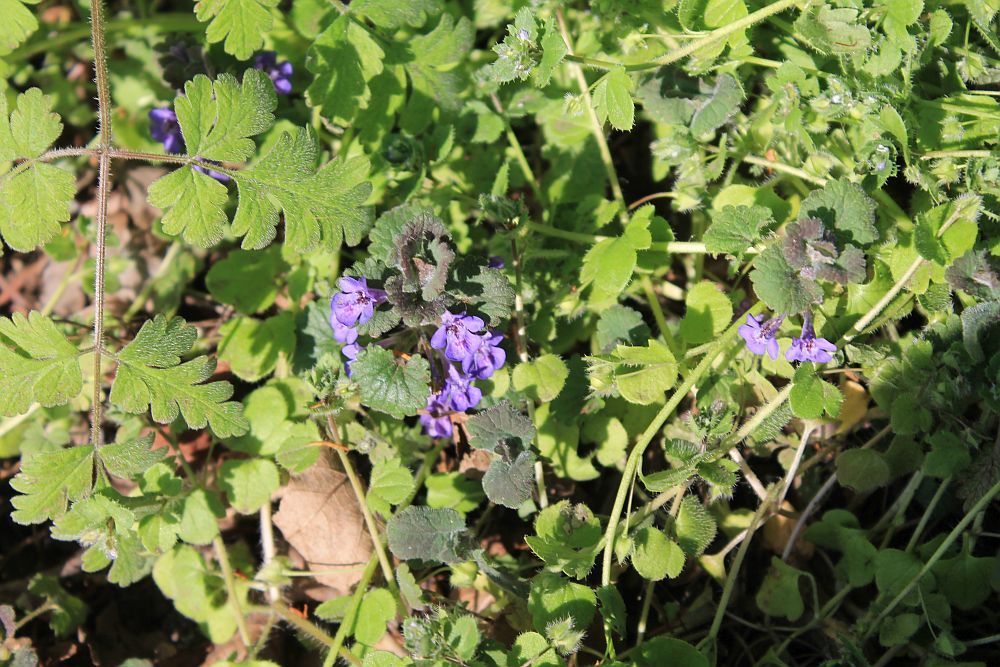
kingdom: Plantae
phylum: Tracheophyta
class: Magnoliopsida
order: Lamiales
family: Lamiaceae
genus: Glechoma
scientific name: Glechoma hederacea
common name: Ground ivy
